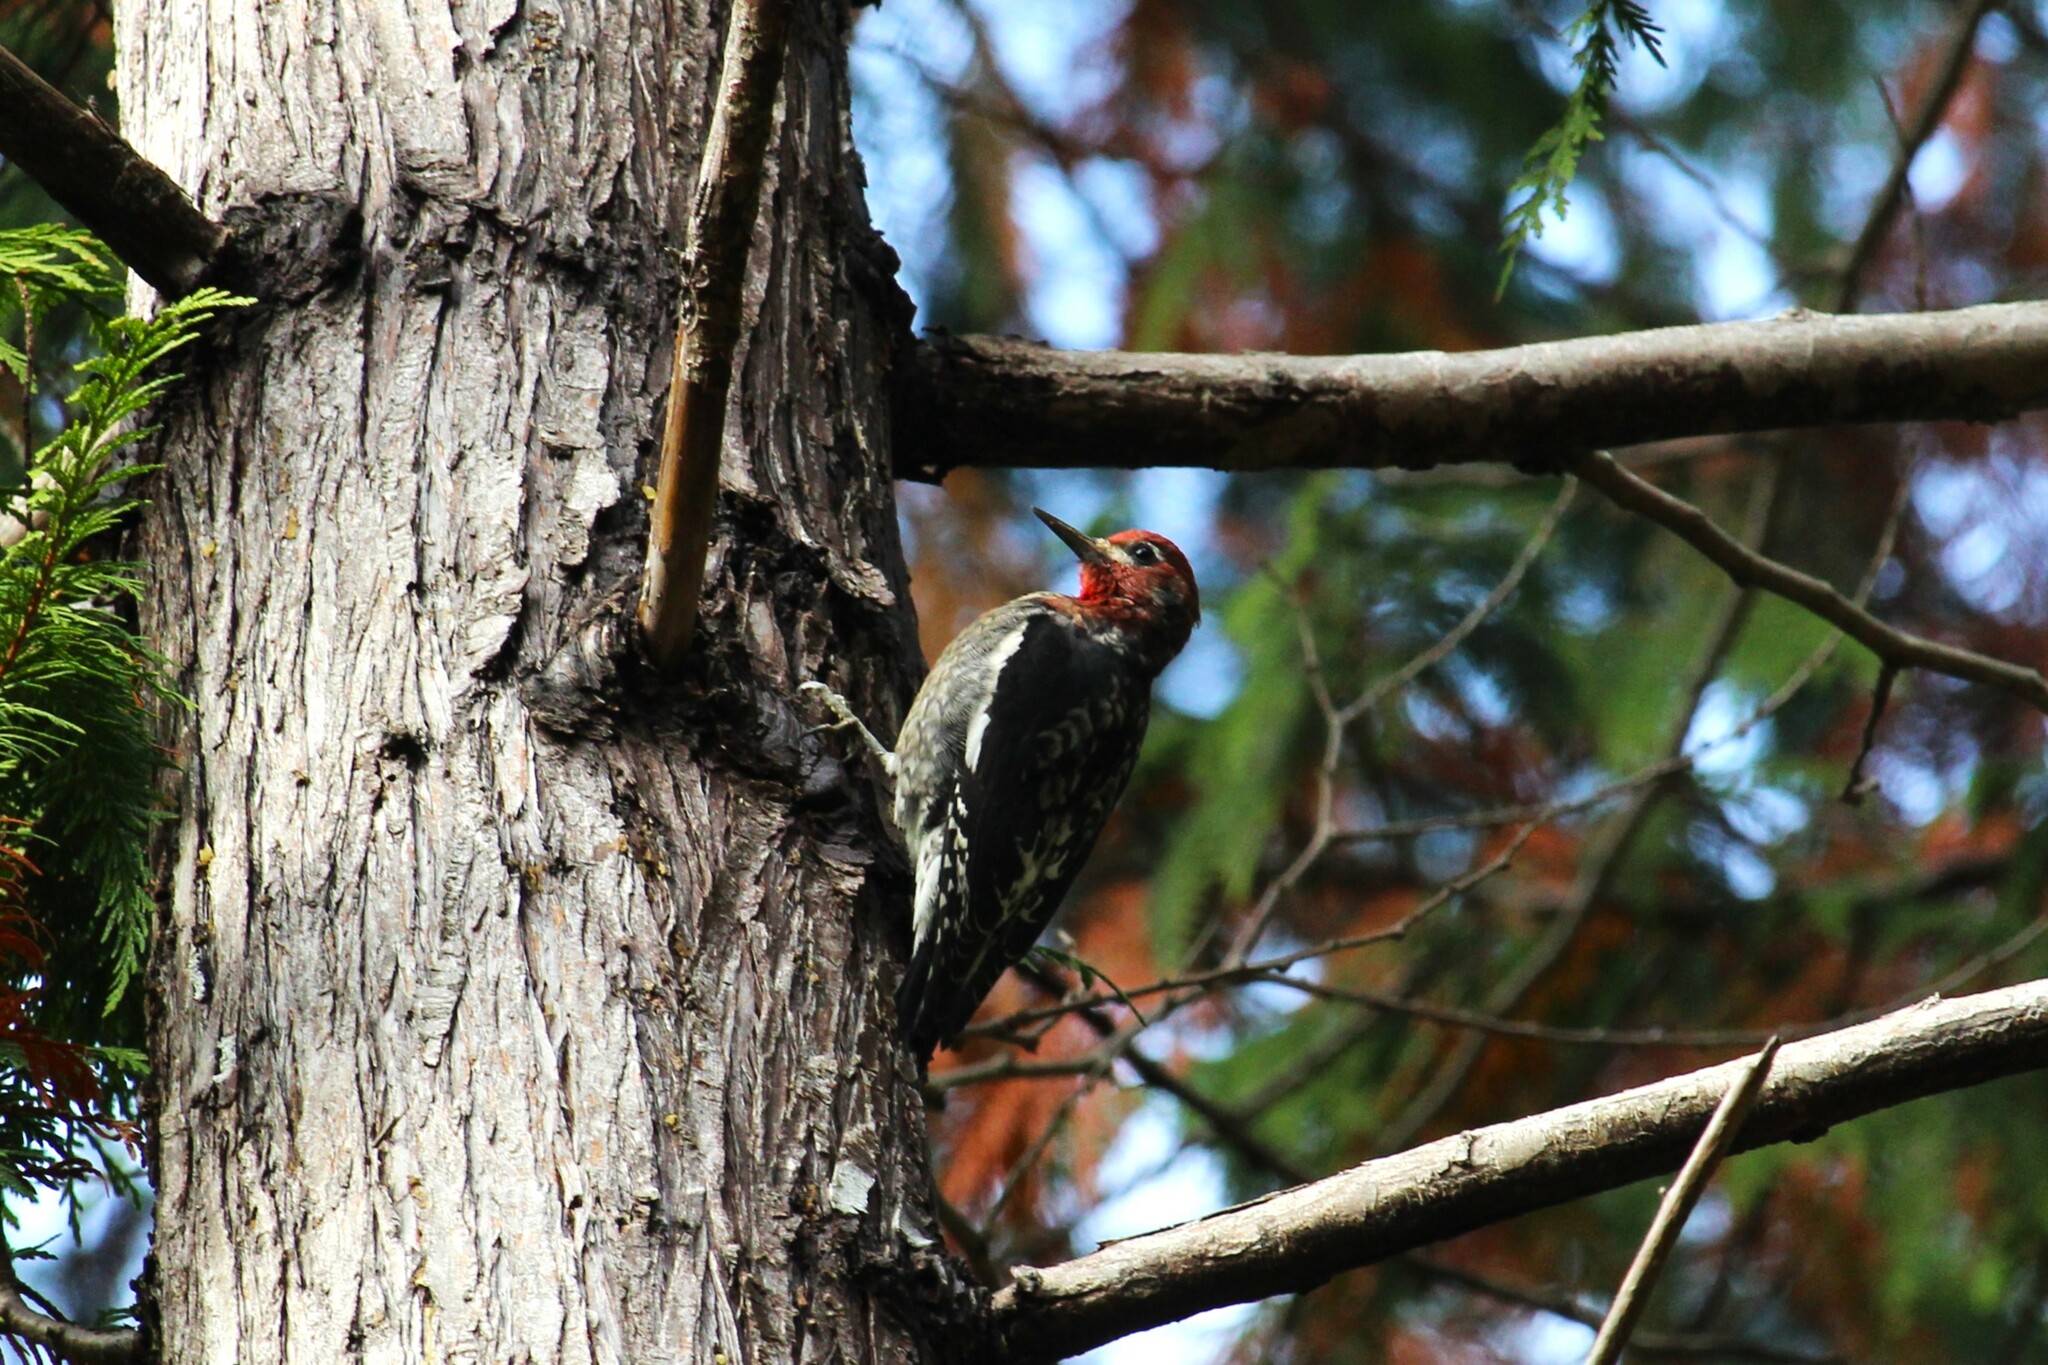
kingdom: Animalia
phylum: Chordata
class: Aves
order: Piciformes
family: Picidae
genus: Sphyrapicus
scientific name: Sphyrapicus ruber
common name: Red-breasted sapsucker
